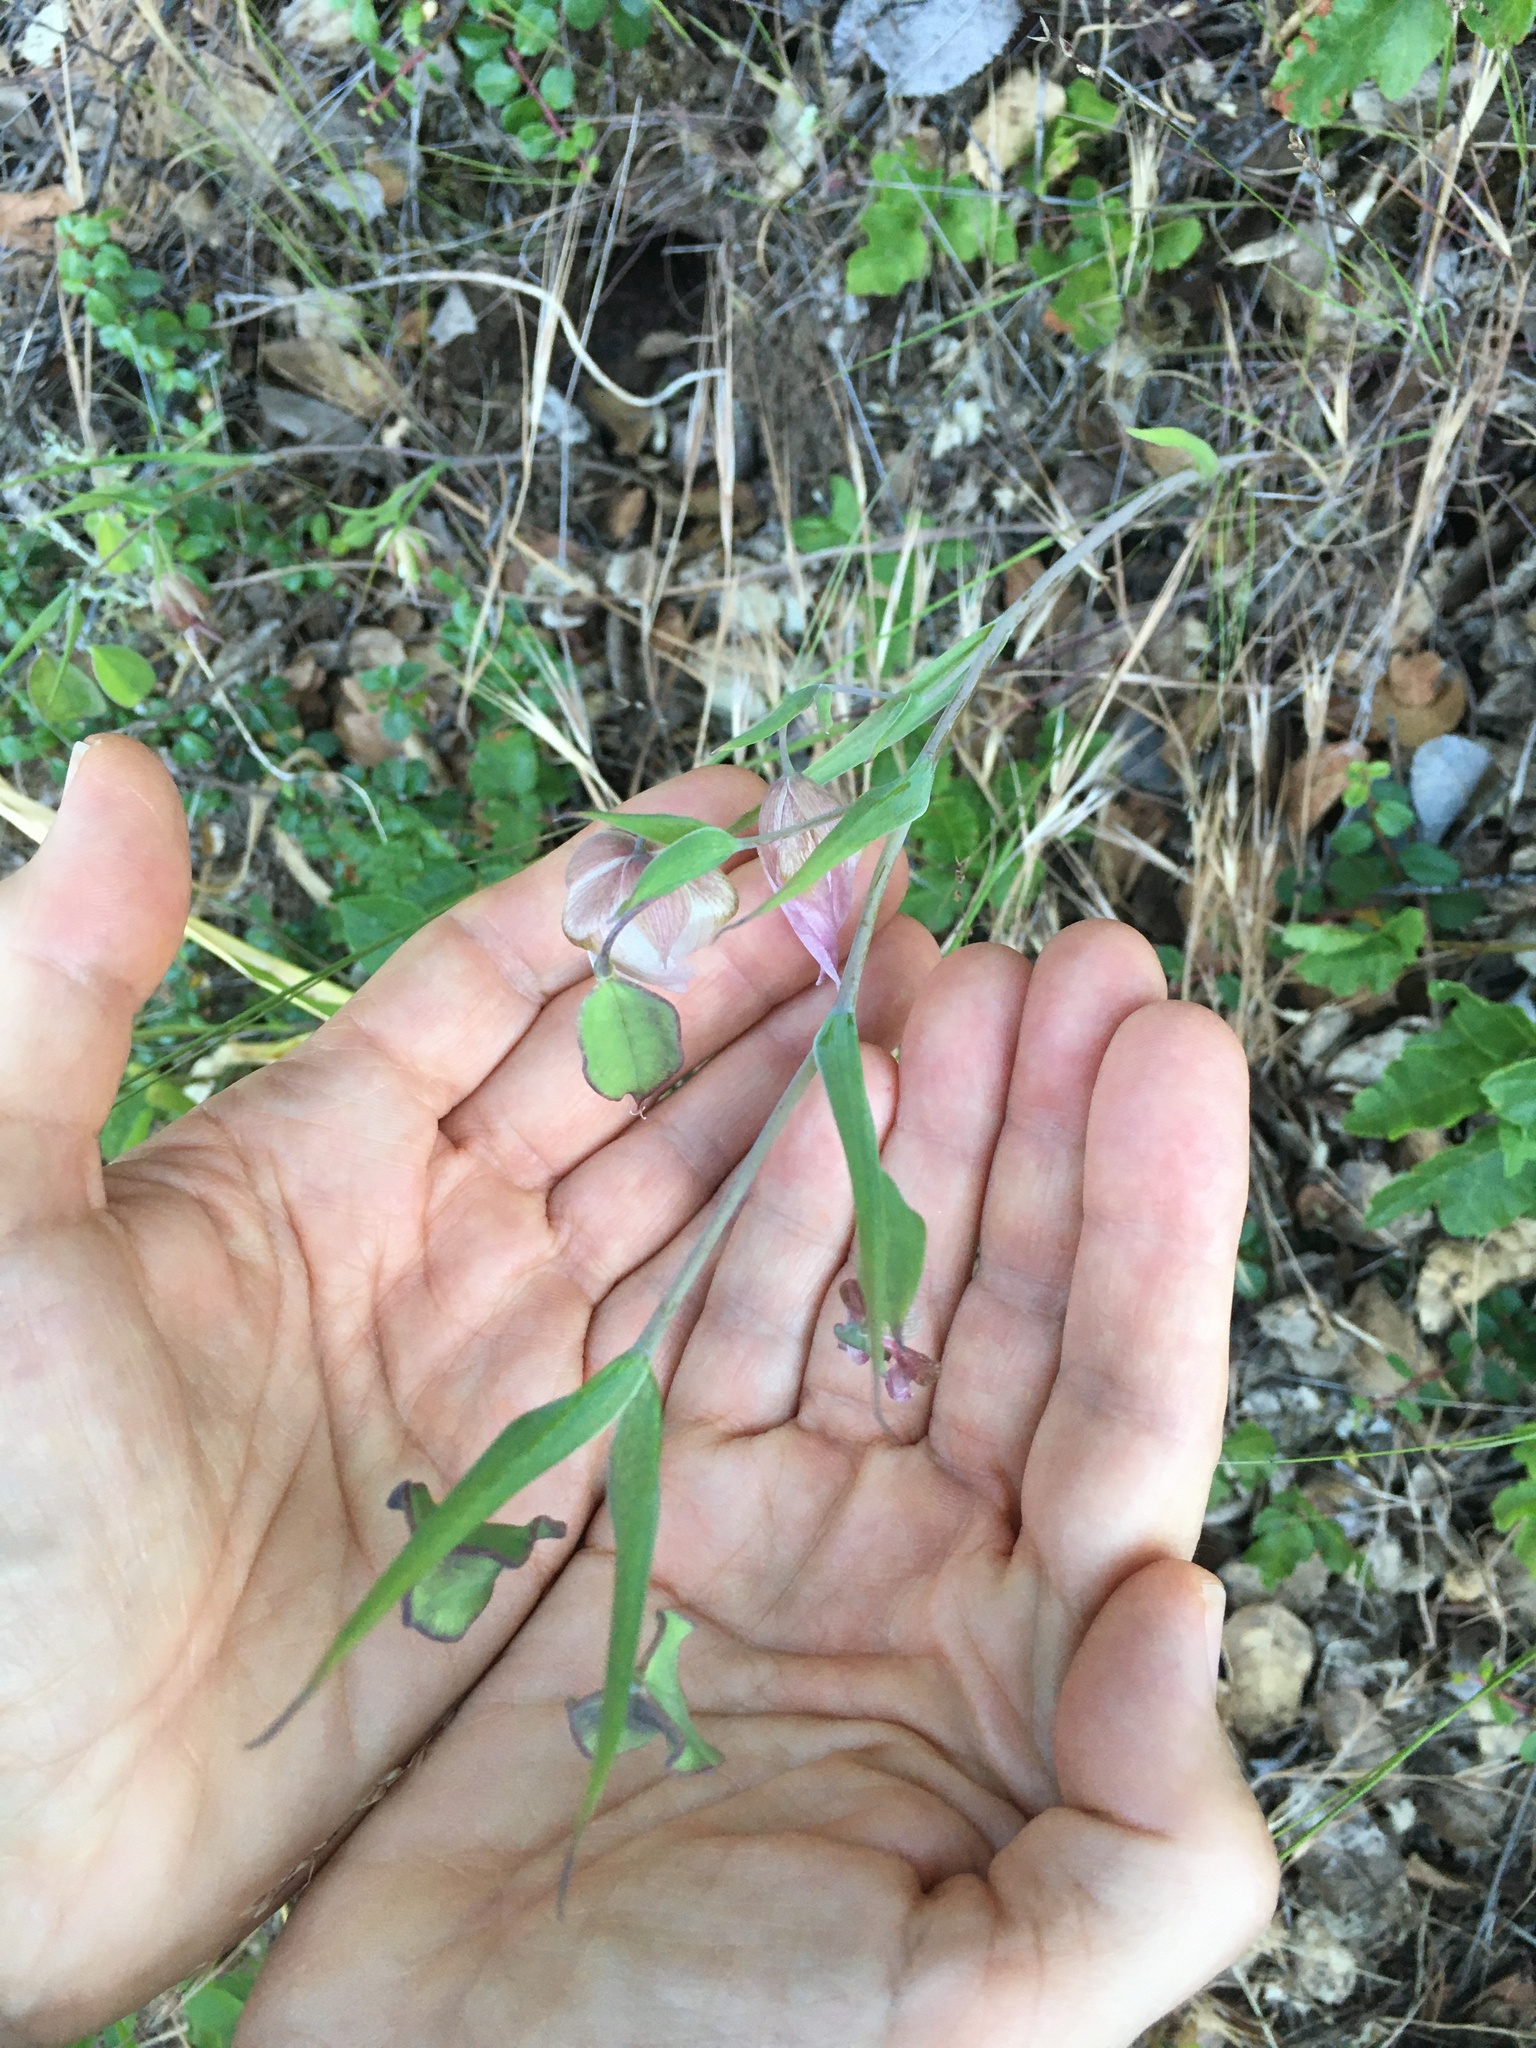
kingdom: Plantae
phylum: Tracheophyta
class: Liliopsida
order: Liliales
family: Liliaceae
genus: Calochortus
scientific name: Calochortus albus
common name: Fairy-lantern
